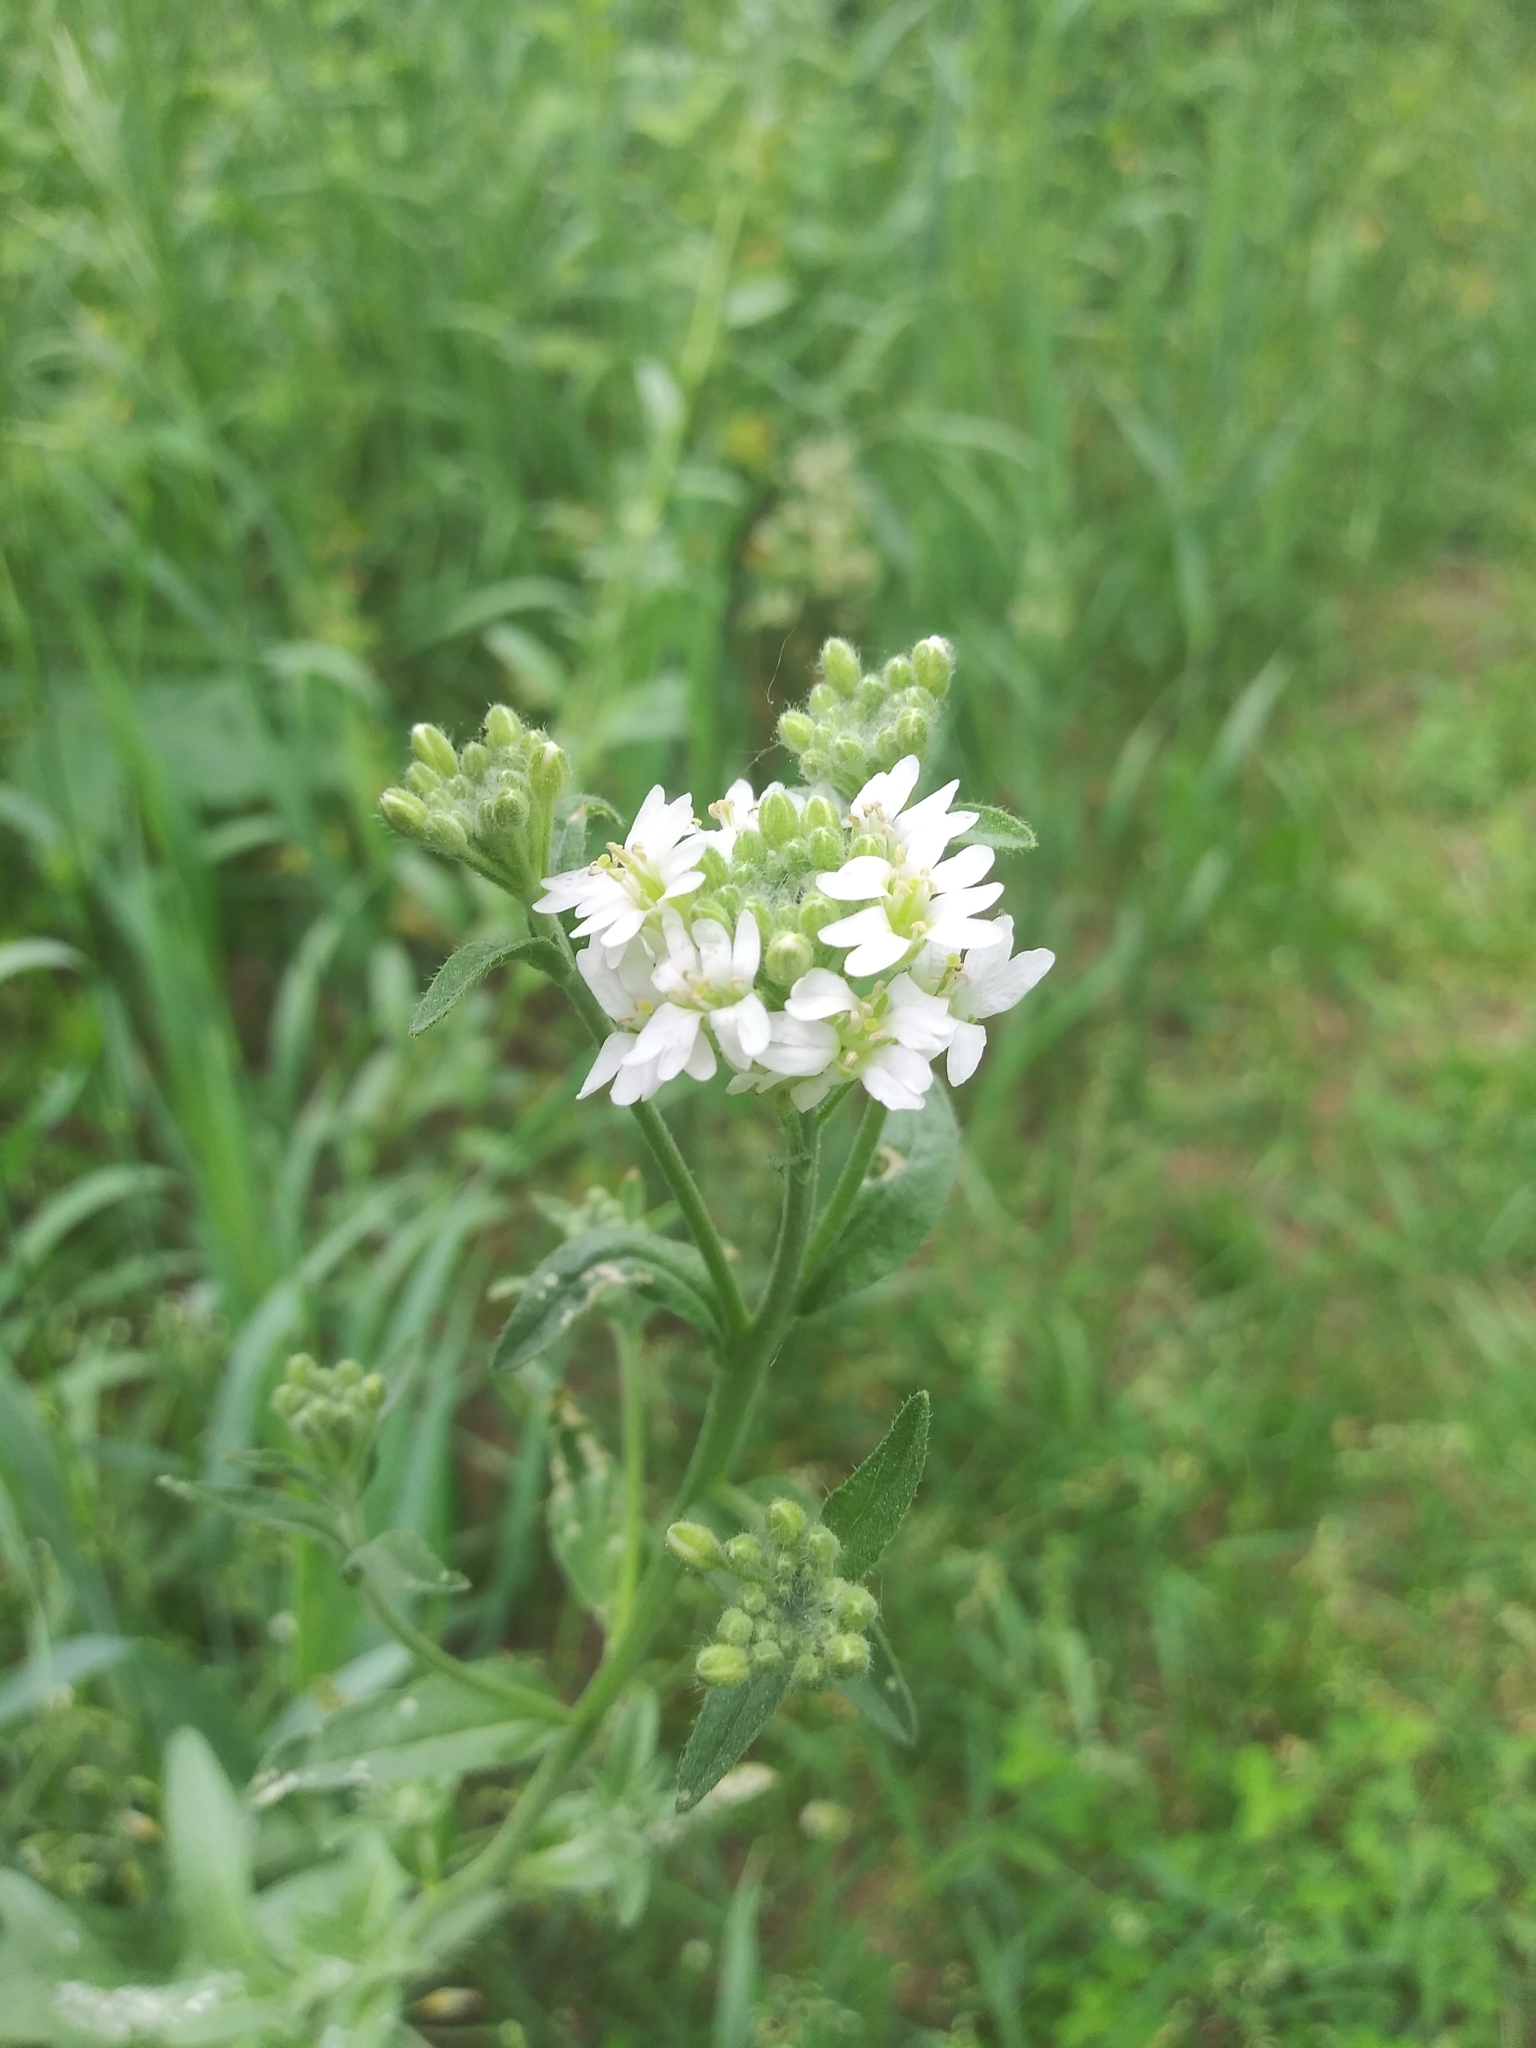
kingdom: Plantae
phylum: Tracheophyta
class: Magnoliopsida
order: Brassicales
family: Brassicaceae
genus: Berteroa
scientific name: Berteroa incana
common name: Hoary alison
